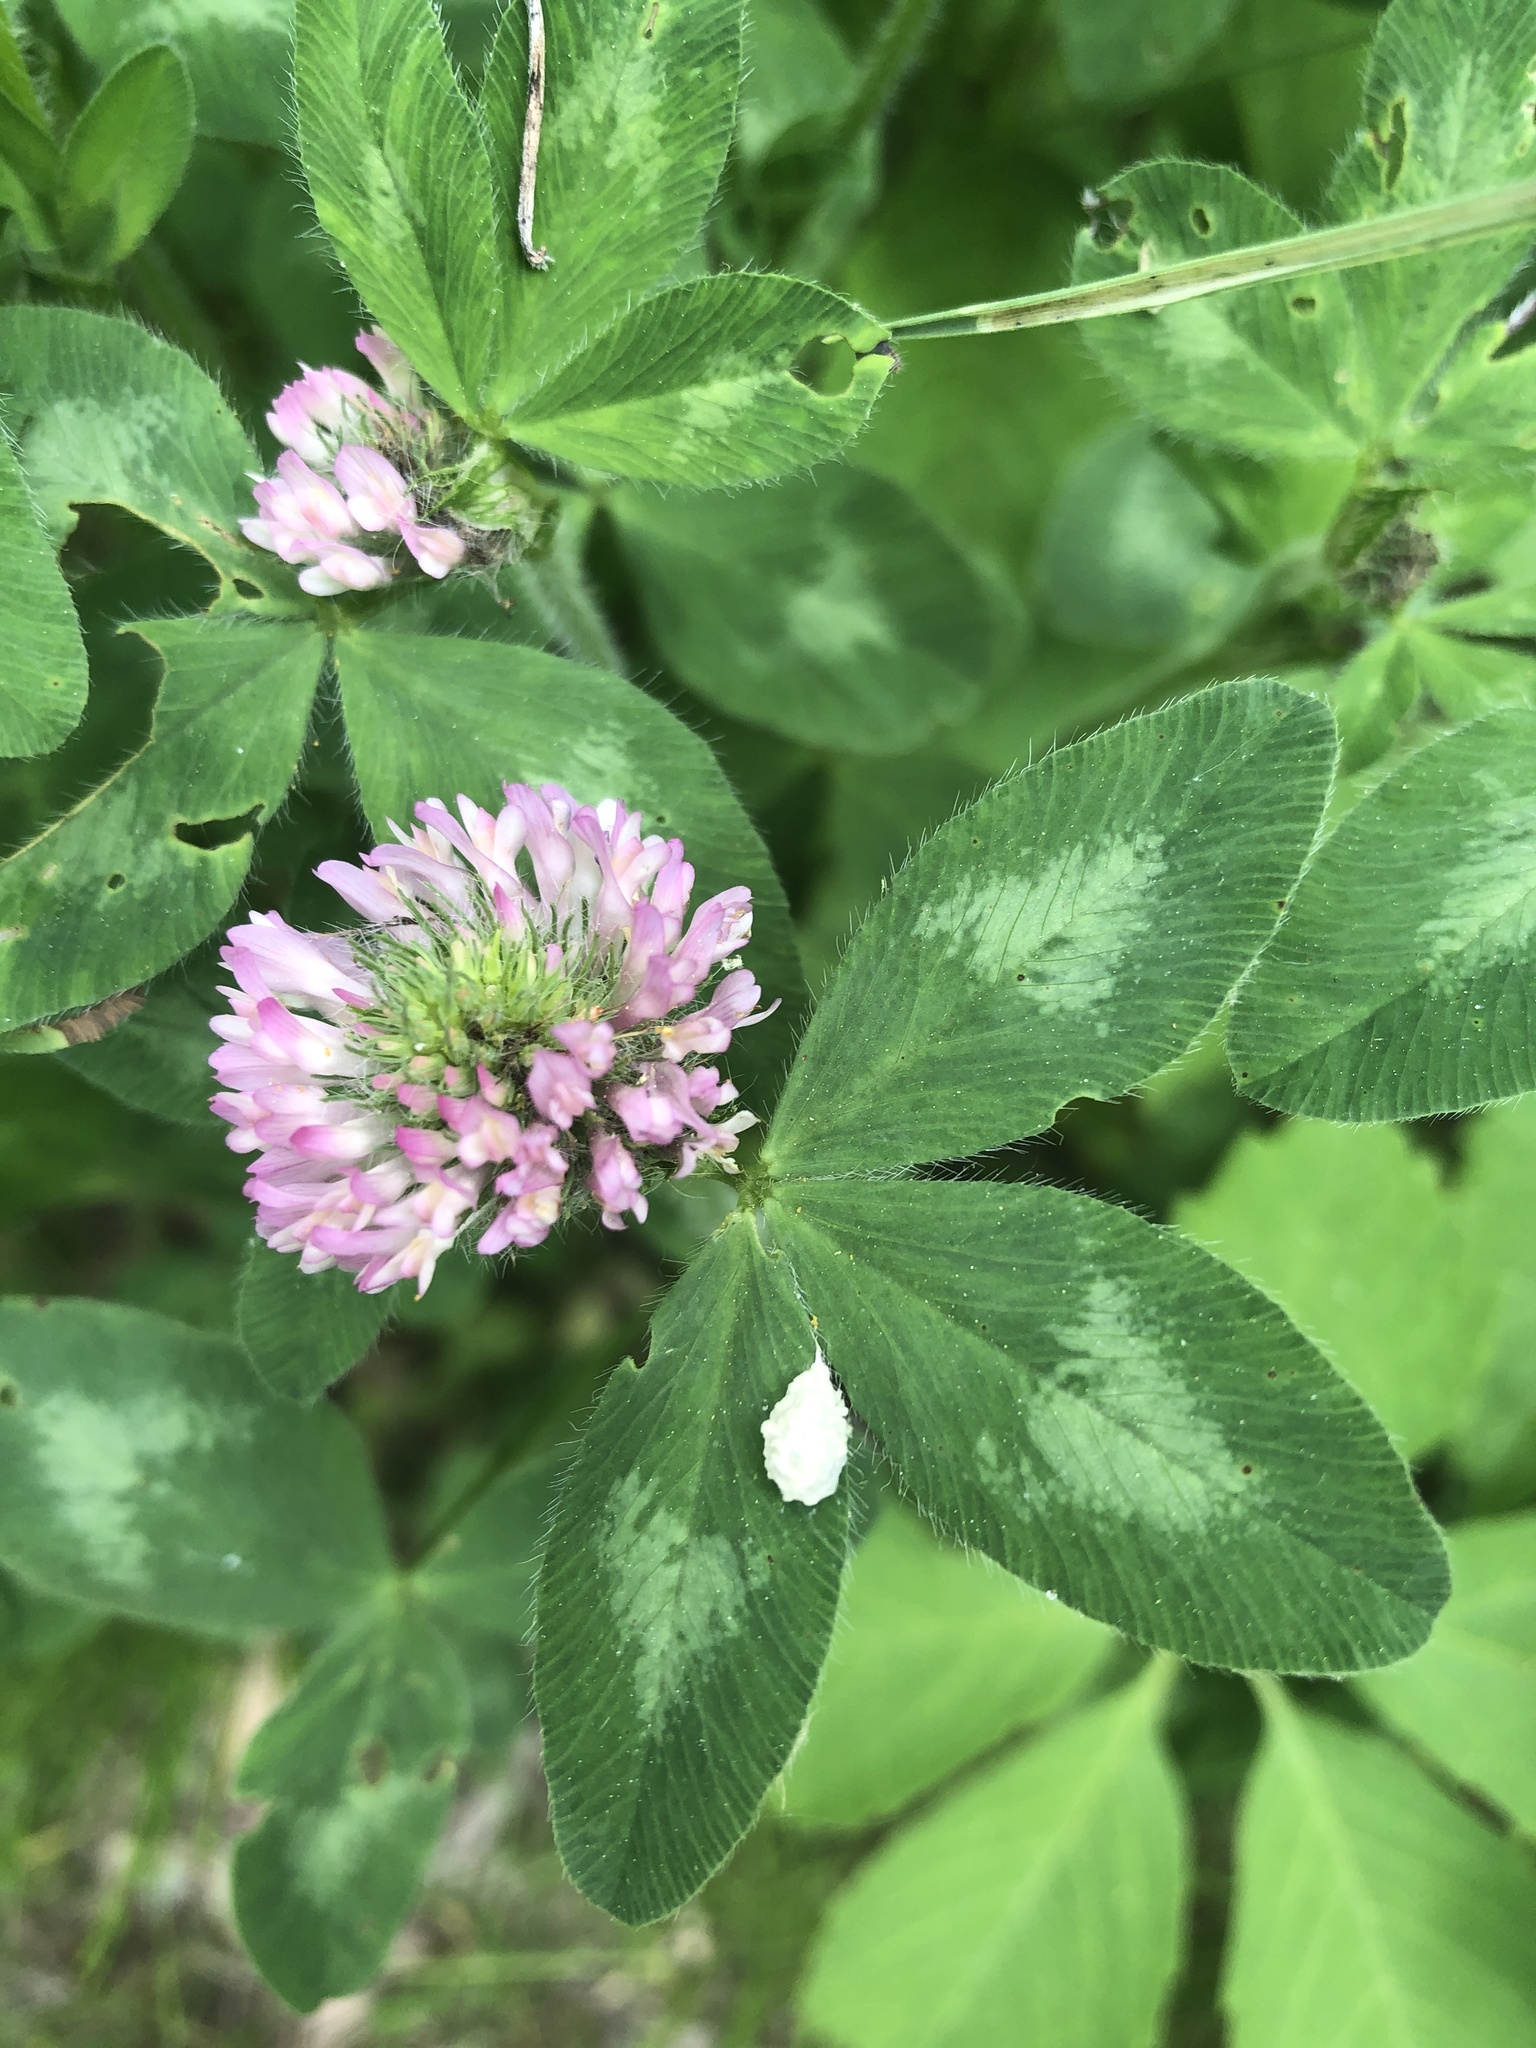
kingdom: Plantae
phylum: Tracheophyta
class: Magnoliopsida
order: Fabales
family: Fabaceae
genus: Trifolium
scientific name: Trifolium pratense
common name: Red clover
